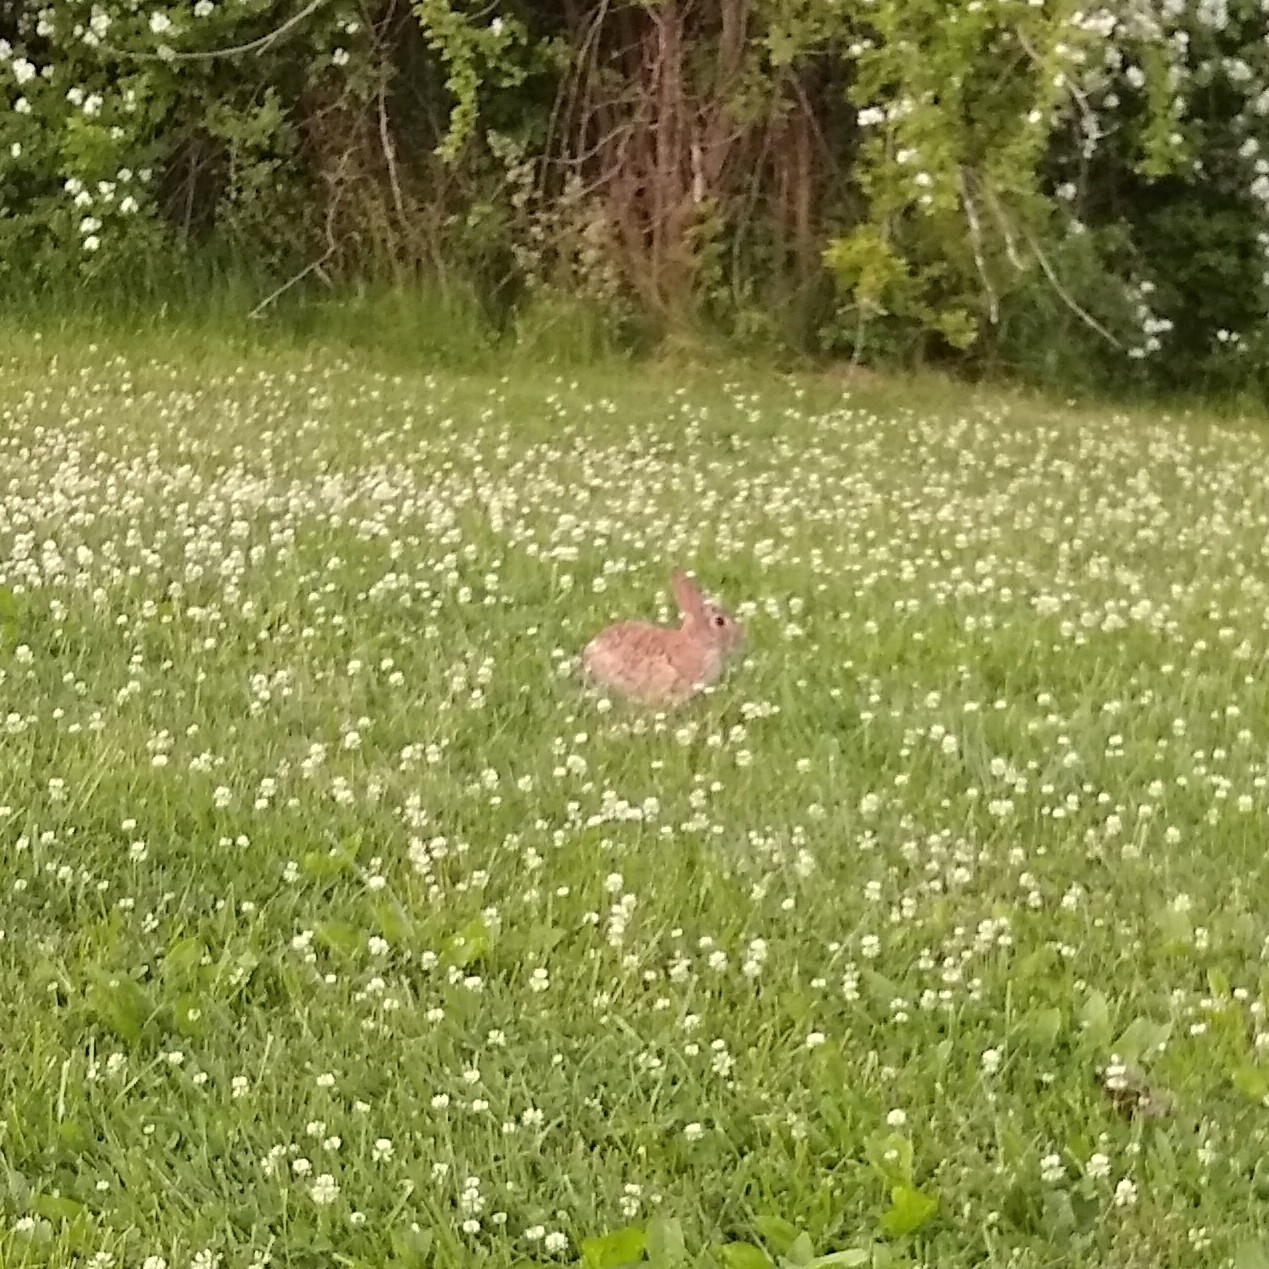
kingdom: Animalia
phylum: Chordata
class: Mammalia
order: Lagomorpha
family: Leporidae
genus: Sylvilagus
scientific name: Sylvilagus floridanus
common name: Eastern cottontail
